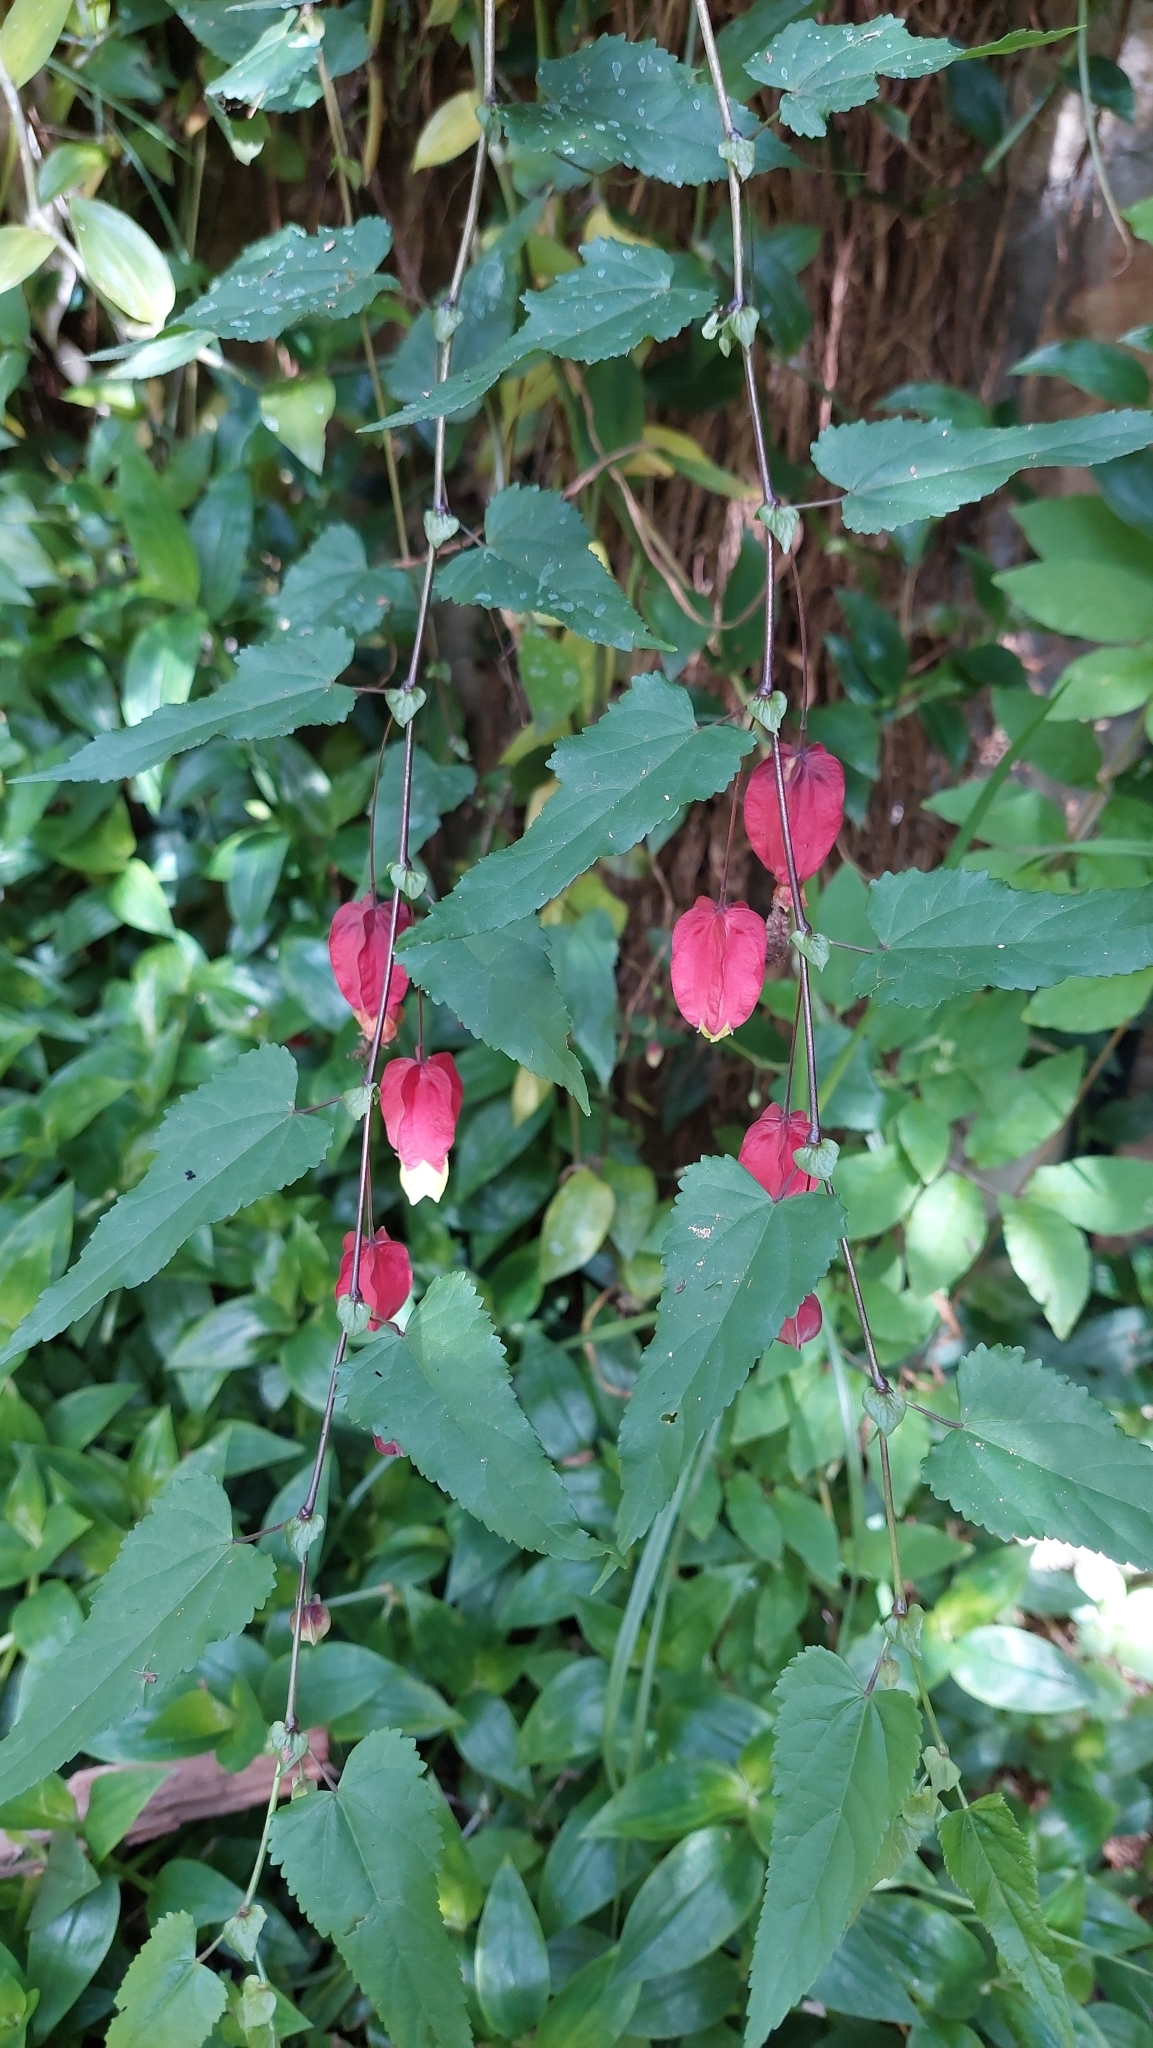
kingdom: Plantae
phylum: Tracheophyta
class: Magnoliopsida
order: Malvales
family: Malvaceae
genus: Callianthe
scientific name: Callianthe megapotamica
